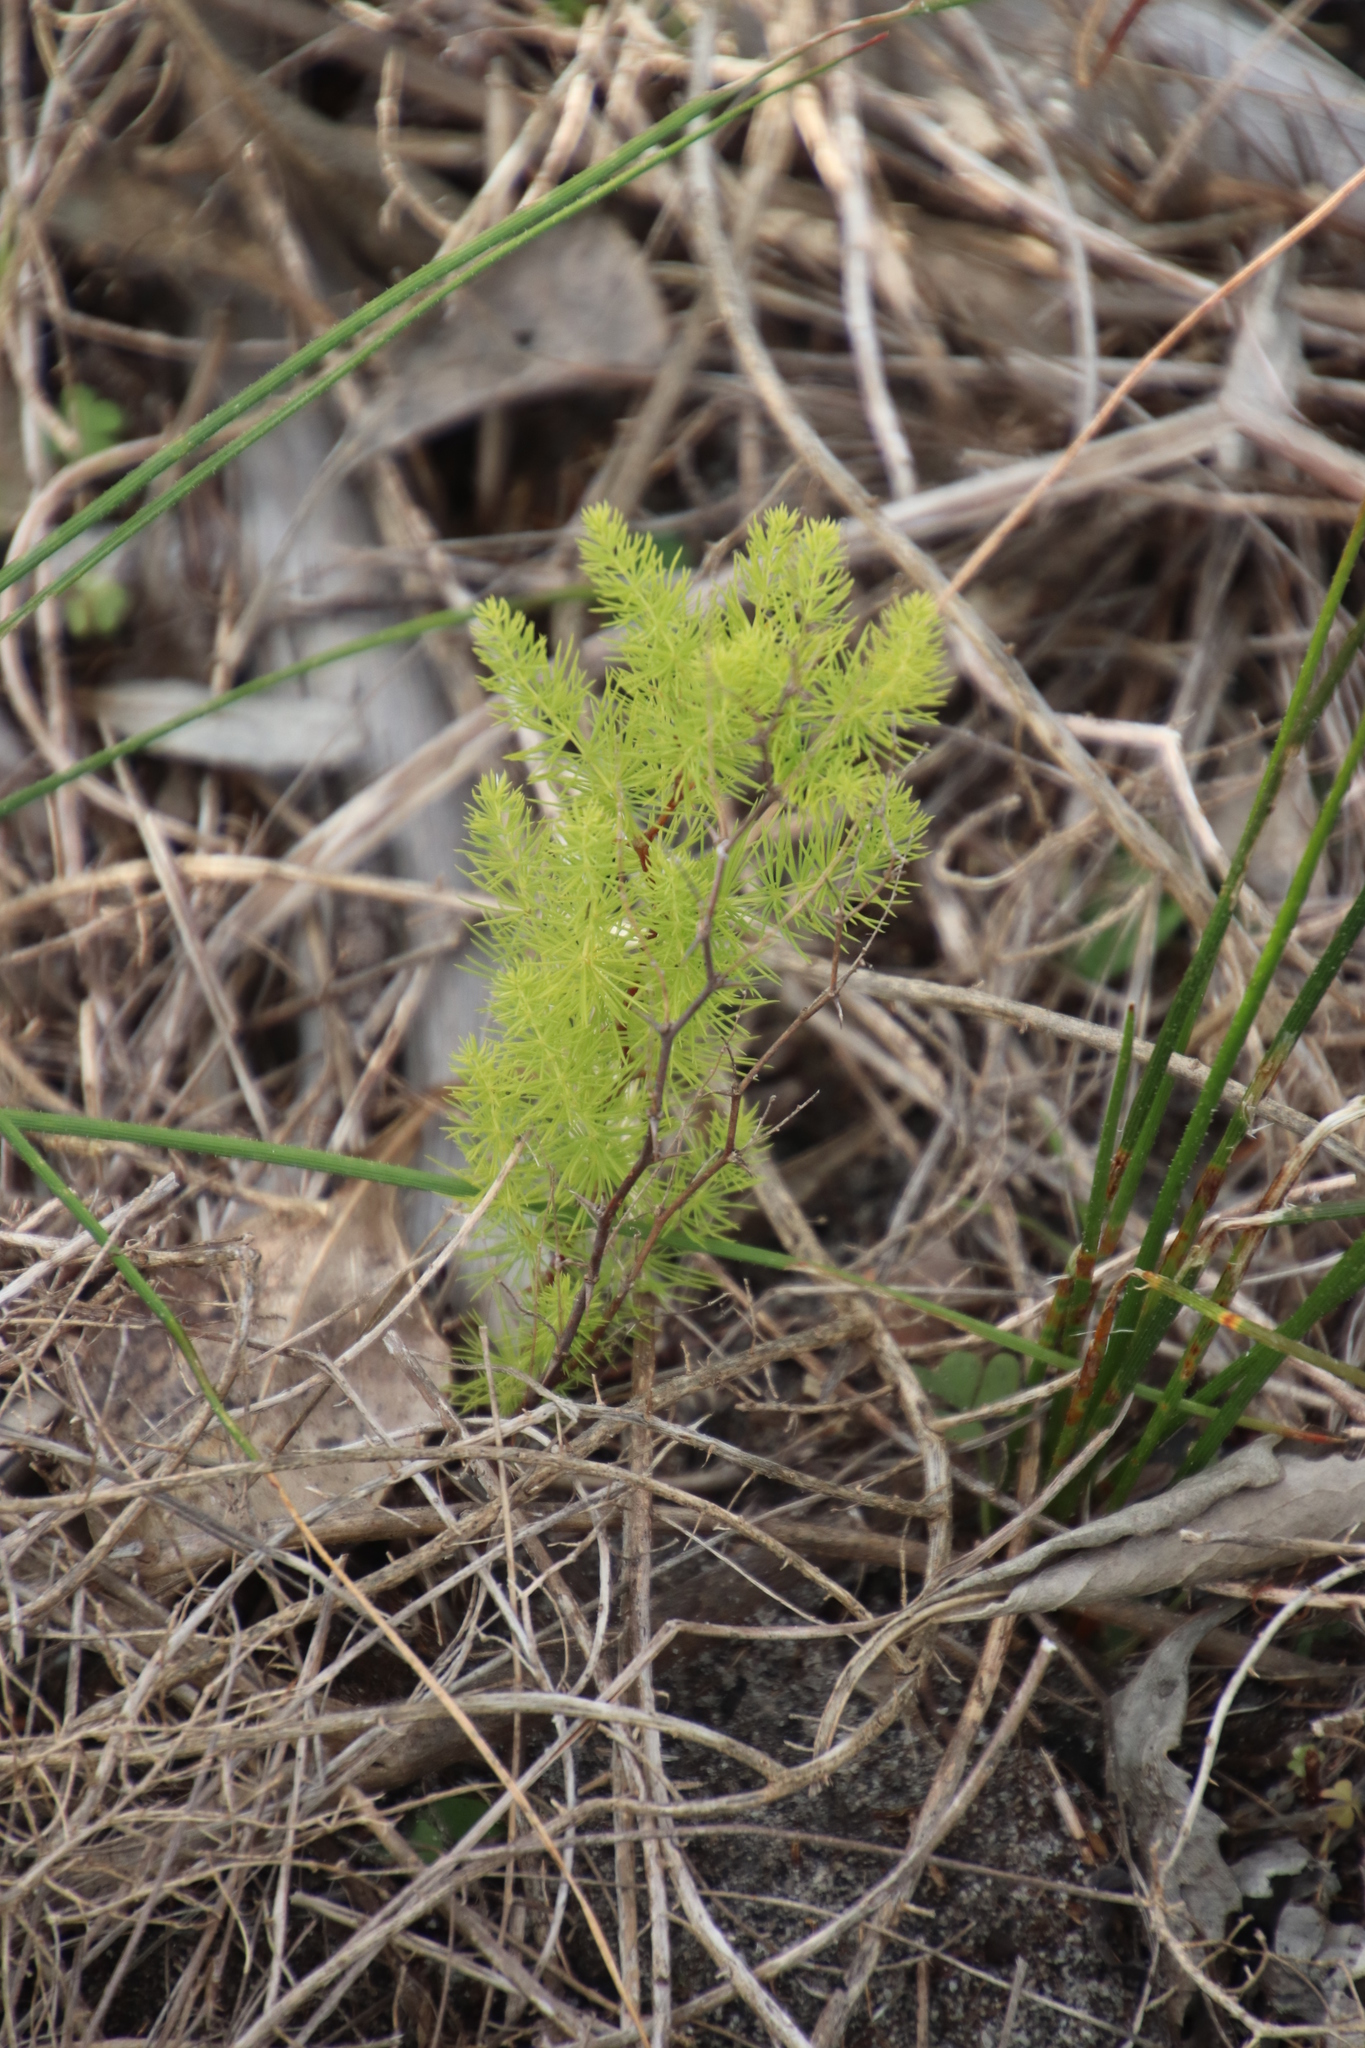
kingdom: Plantae
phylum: Tracheophyta
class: Liliopsida
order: Asparagales
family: Asparagaceae
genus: Asparagus
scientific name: Asparagus rubicundus
